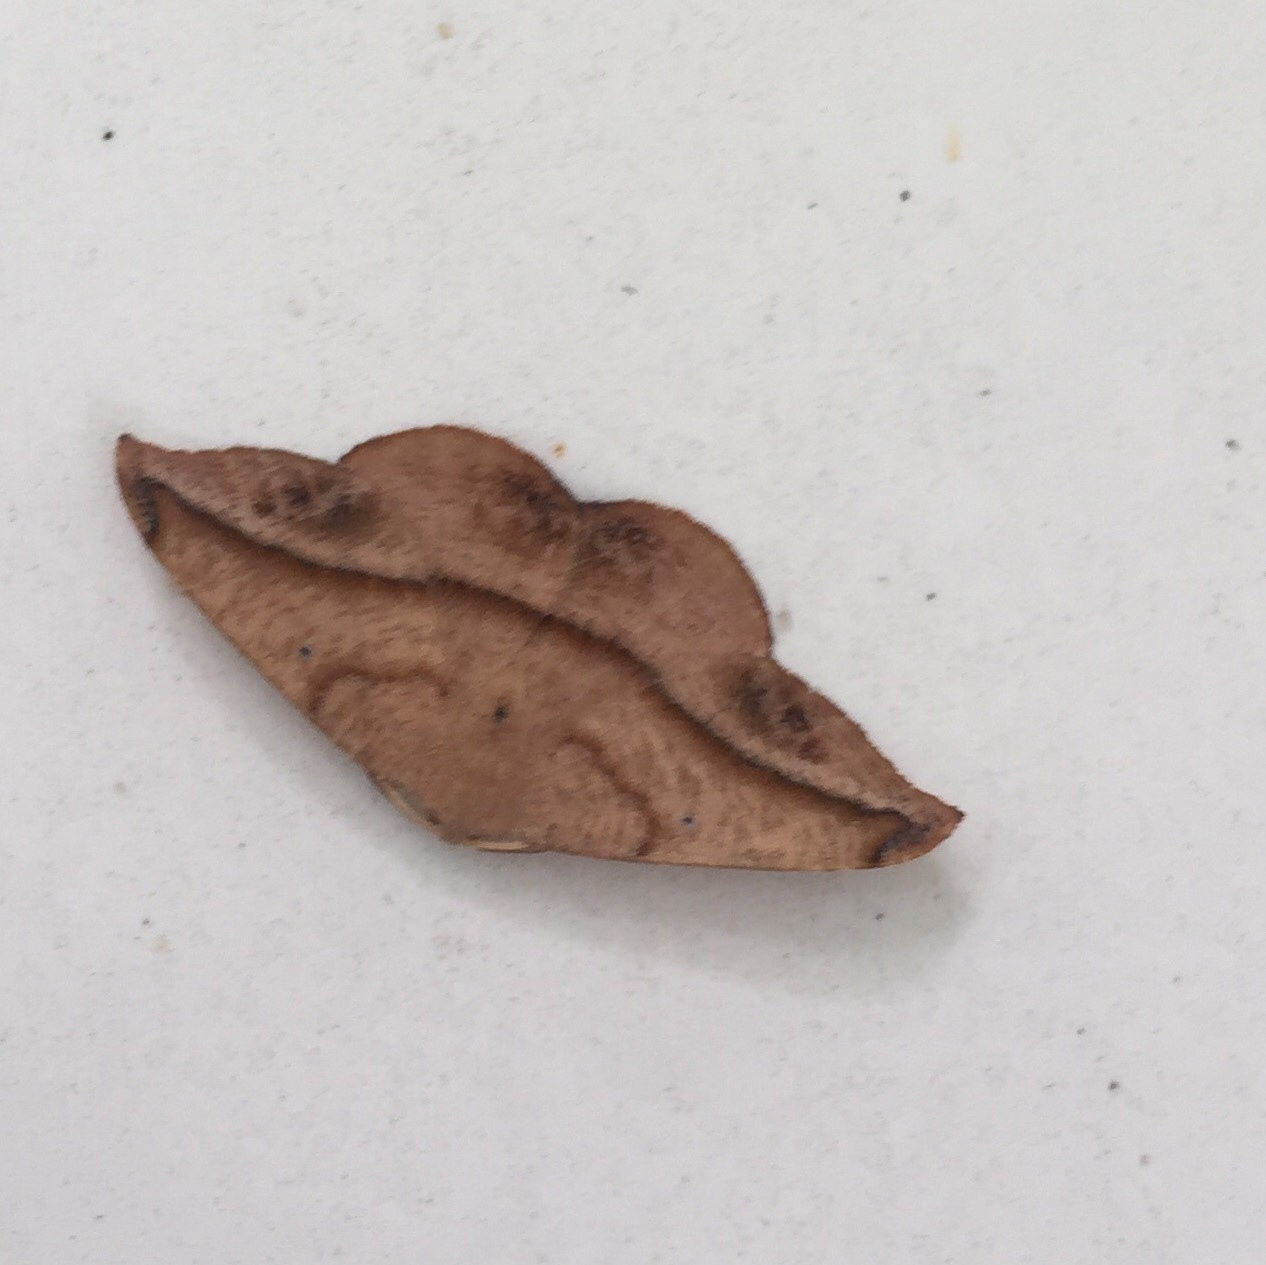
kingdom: Animalia
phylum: Arthropoda
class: Insecta
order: Lepidoptera
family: Geometridae
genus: Patalene
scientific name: Patalene olyzonaria
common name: Juniper geometer moth
